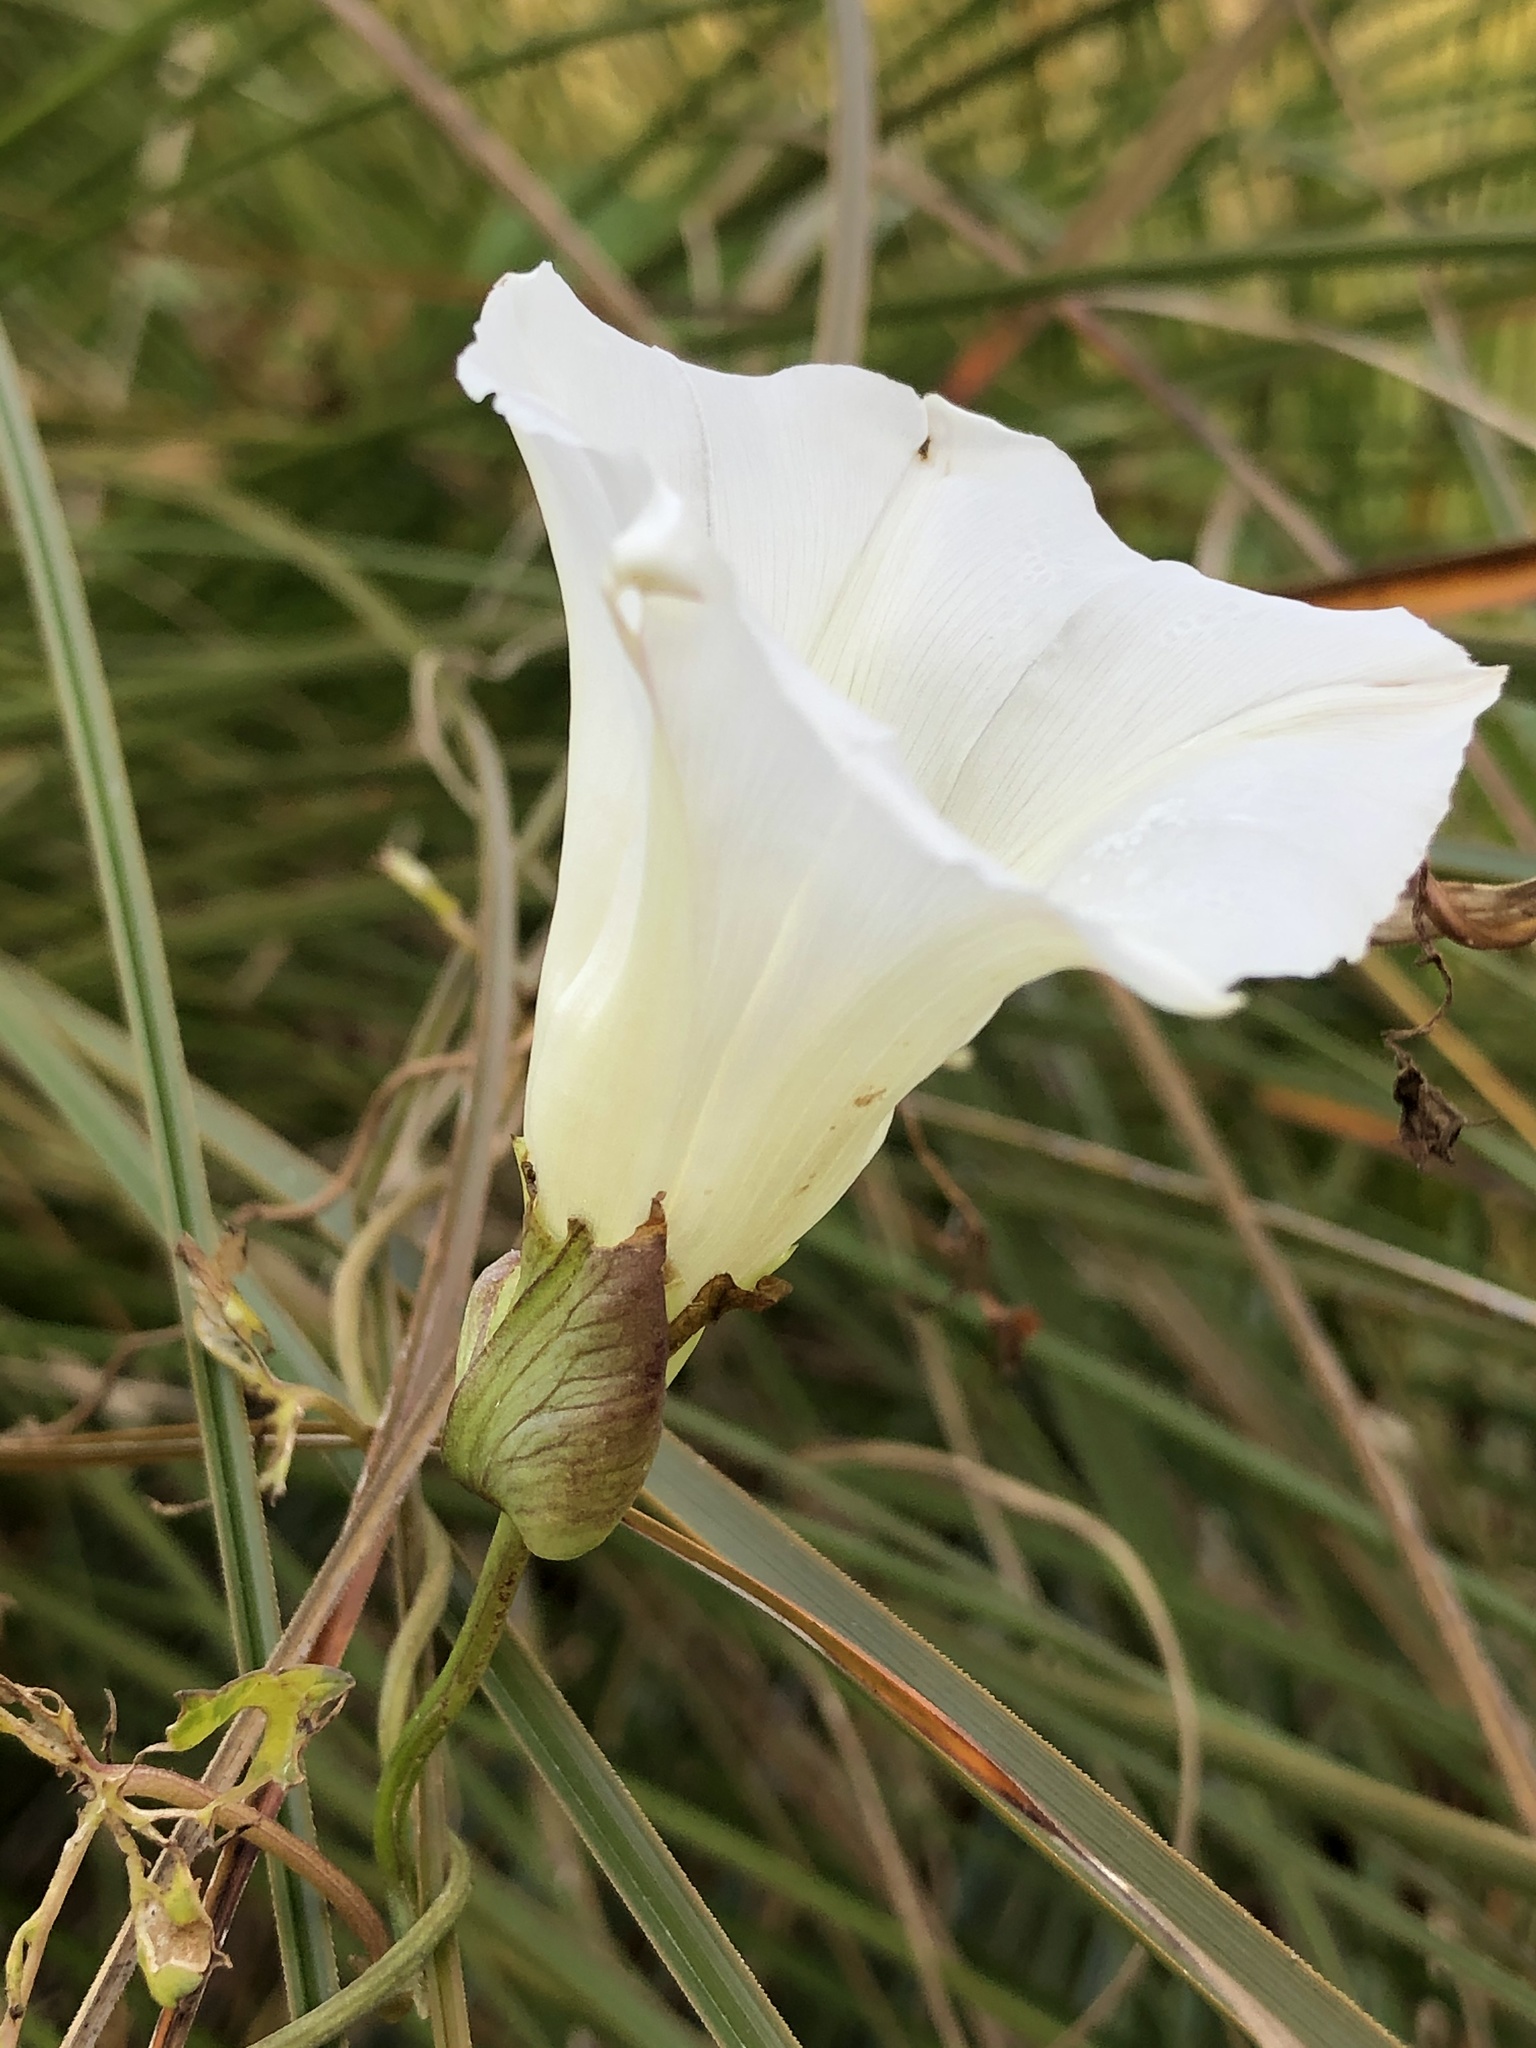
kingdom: Plantae
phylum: Tracheophyta
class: Magnoliopsida
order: Solanales
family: Convolvulaceae
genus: Calystegia
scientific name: Calystegia silvatica
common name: Large bindweed
